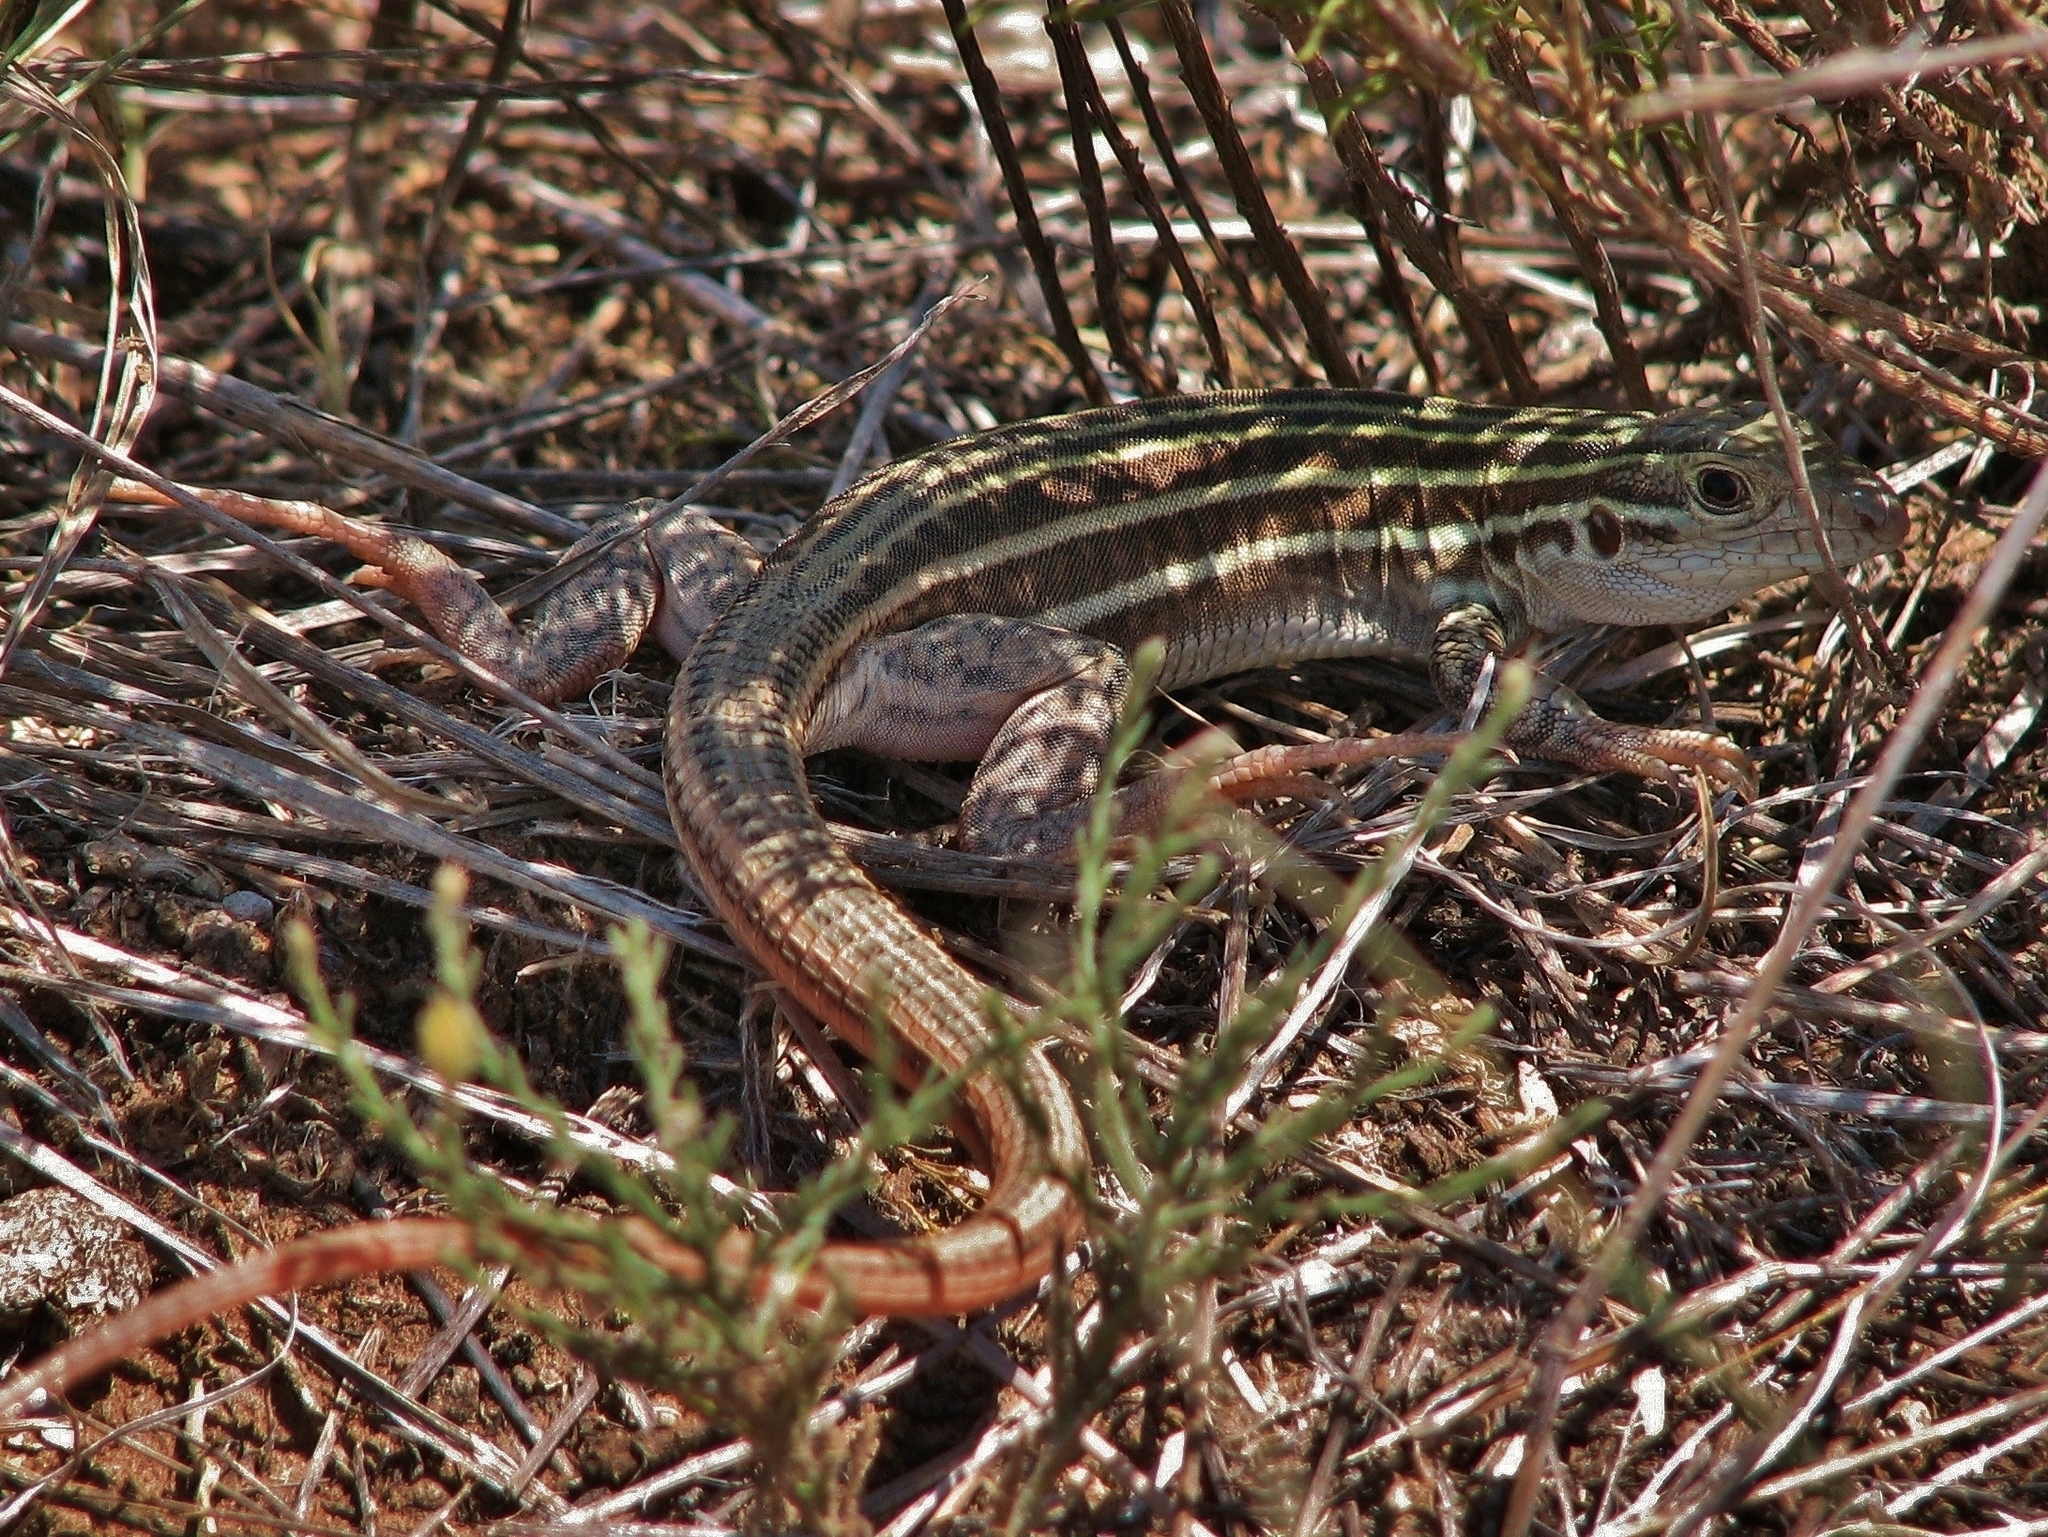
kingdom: Animalia
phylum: Chordata
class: Squamata
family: Teiidae
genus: Aspidoscelis
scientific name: Aspidoscelis gularis
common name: Eastern spotted whiptail
